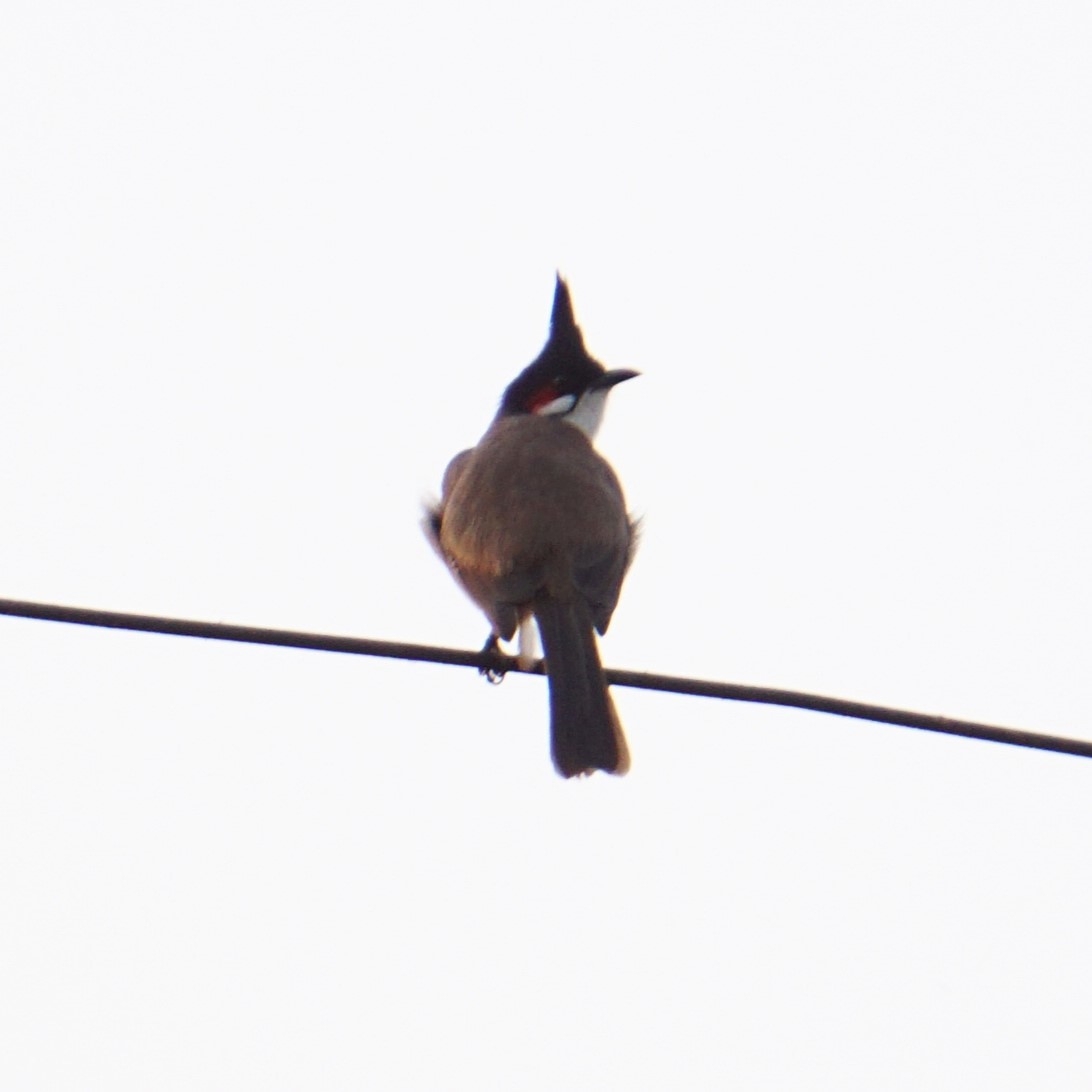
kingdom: Animalia
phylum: Chordata
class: Aves
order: Passeriformes
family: Pycnonotidae
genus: Pycnonotus
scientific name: Pycnonotus jocosus
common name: Red-whiskered bulbul
